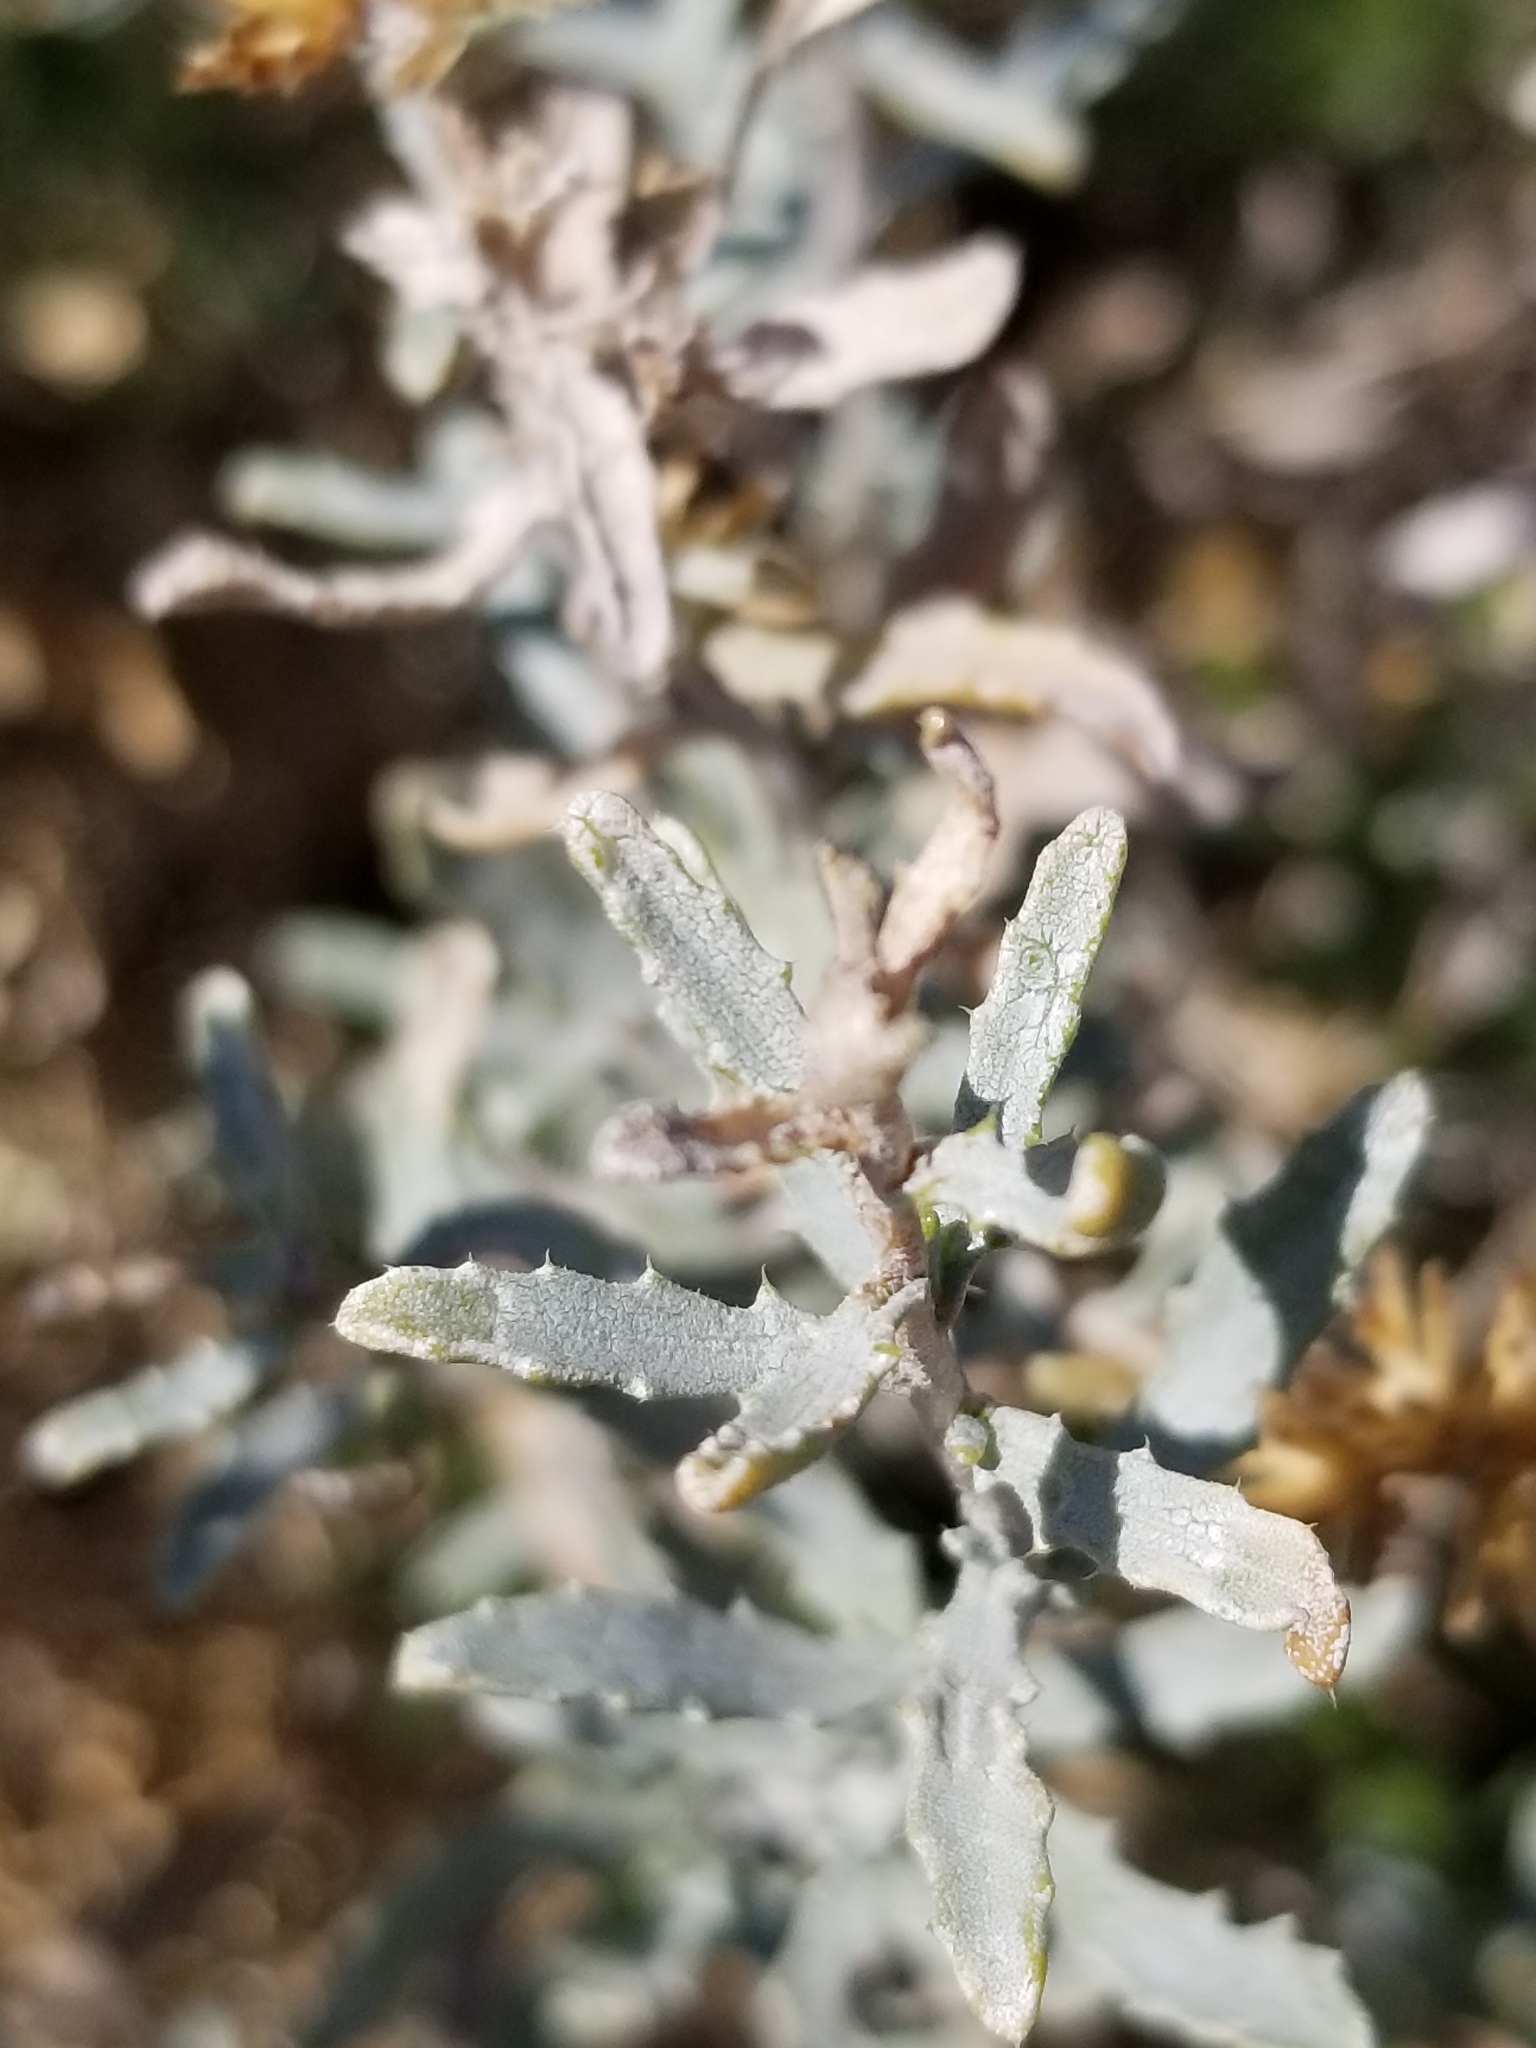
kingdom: Plantae
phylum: Tracheophyta
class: Magnoliopsida
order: Asterales
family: Asteraceae
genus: Isocoma
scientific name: Isocoma acradenia
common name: Alkali jimmyweed
